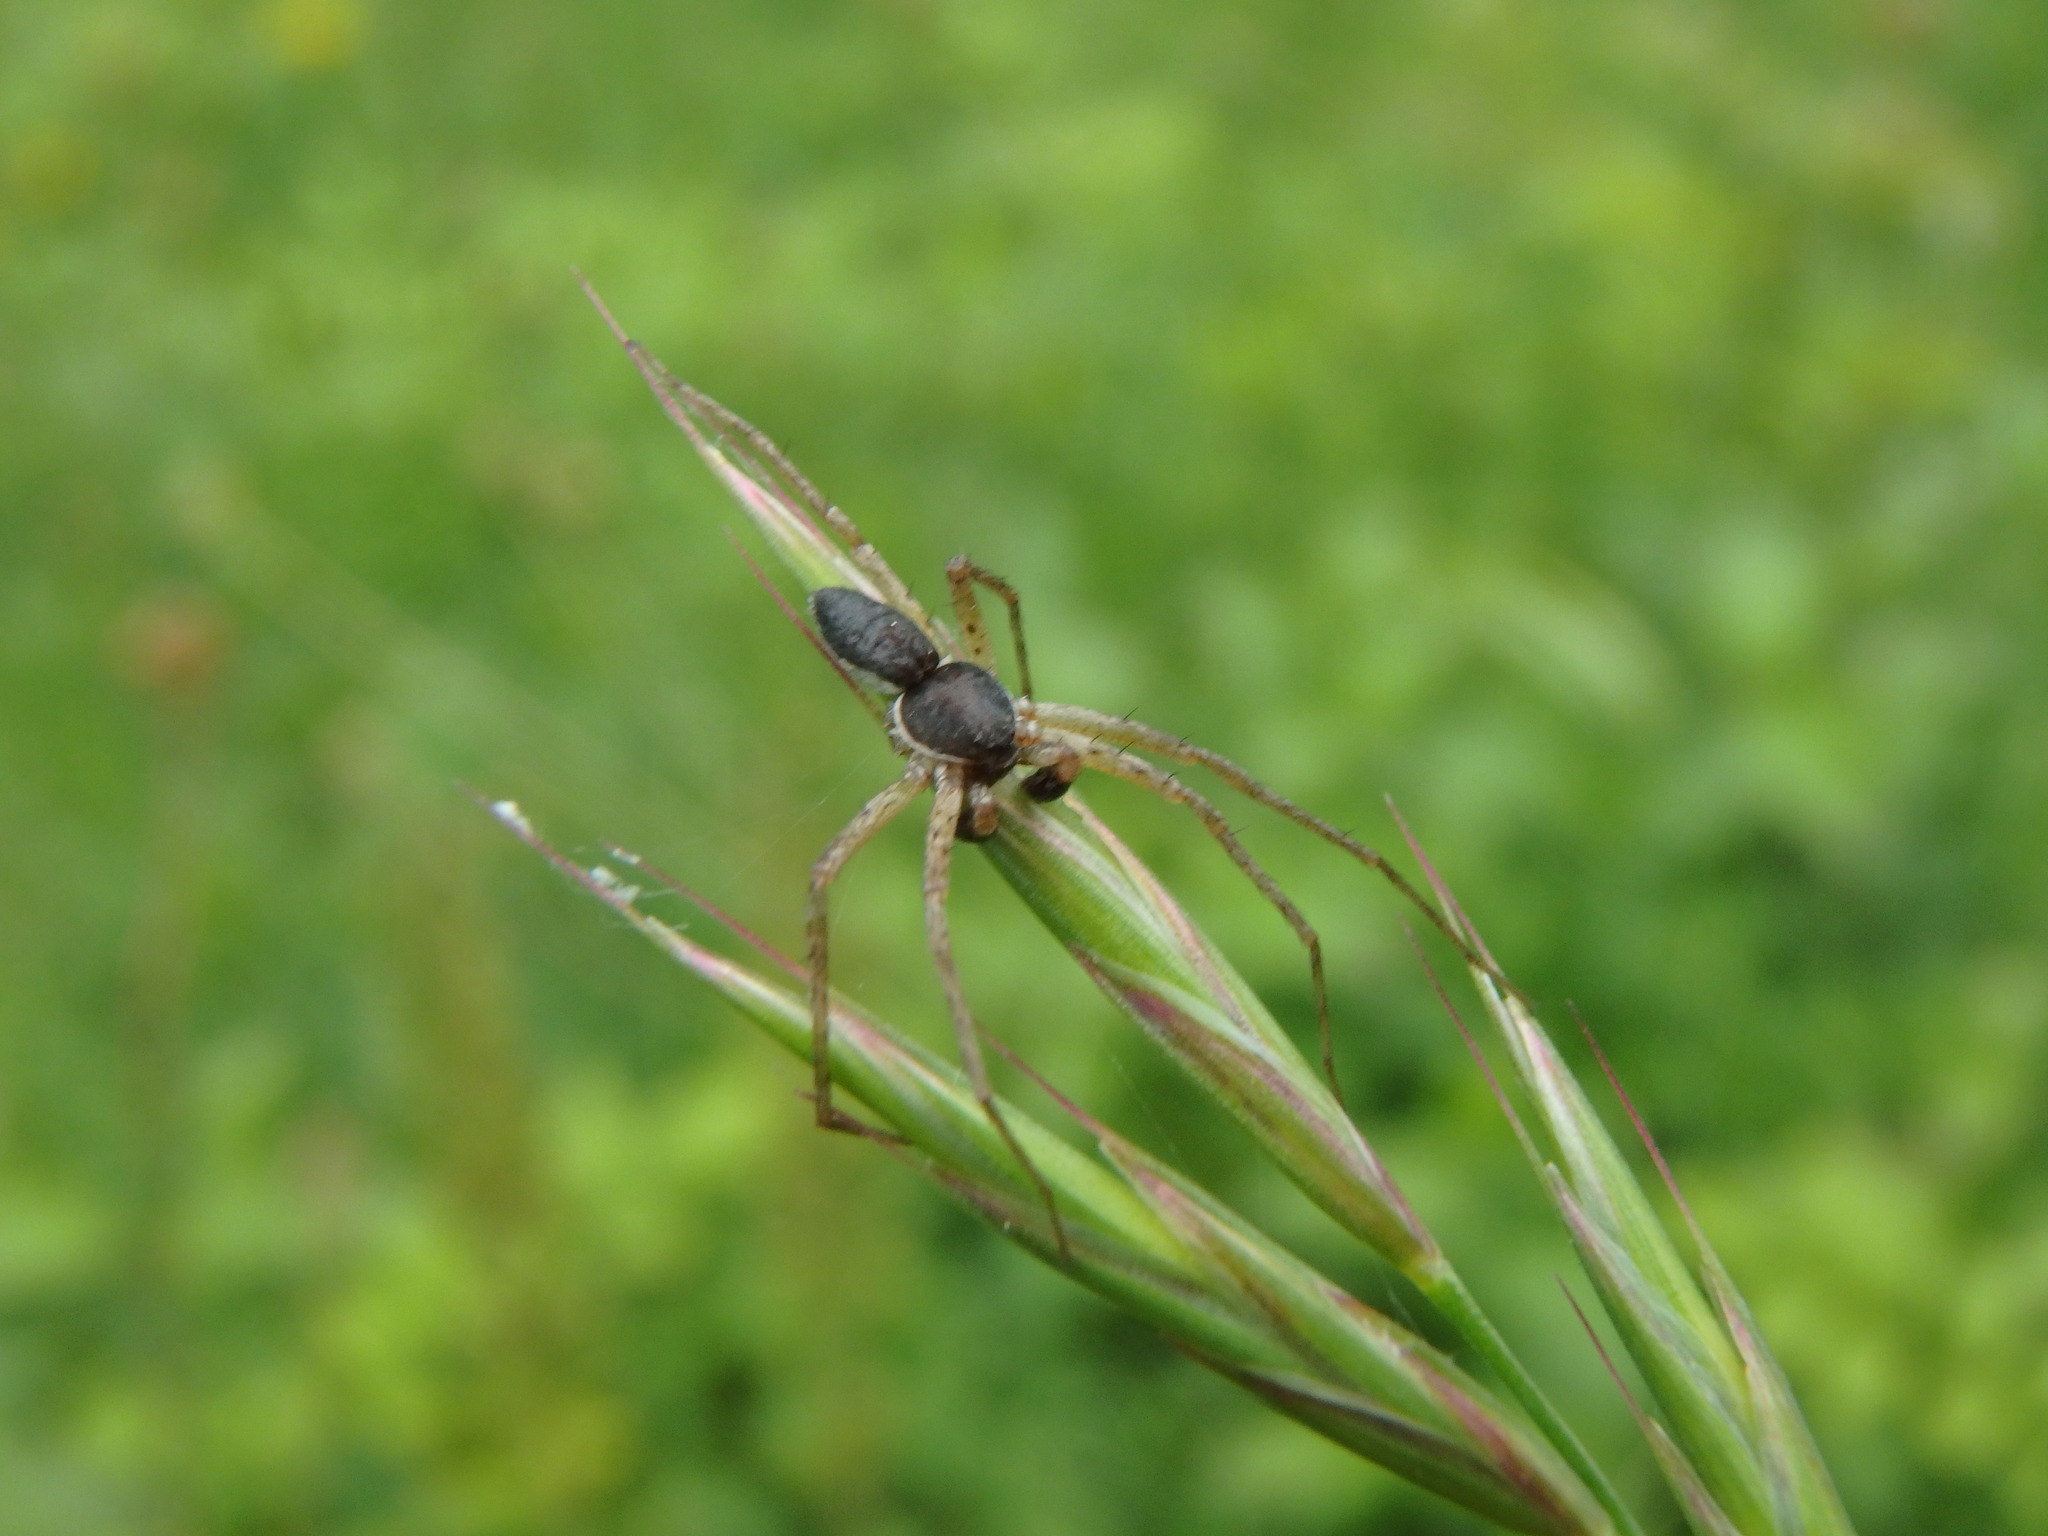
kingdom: Animalia
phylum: Arthropoda
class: Arachnida
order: Araneae
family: Philodromidae
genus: Philodromus
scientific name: Philodromus dispar
